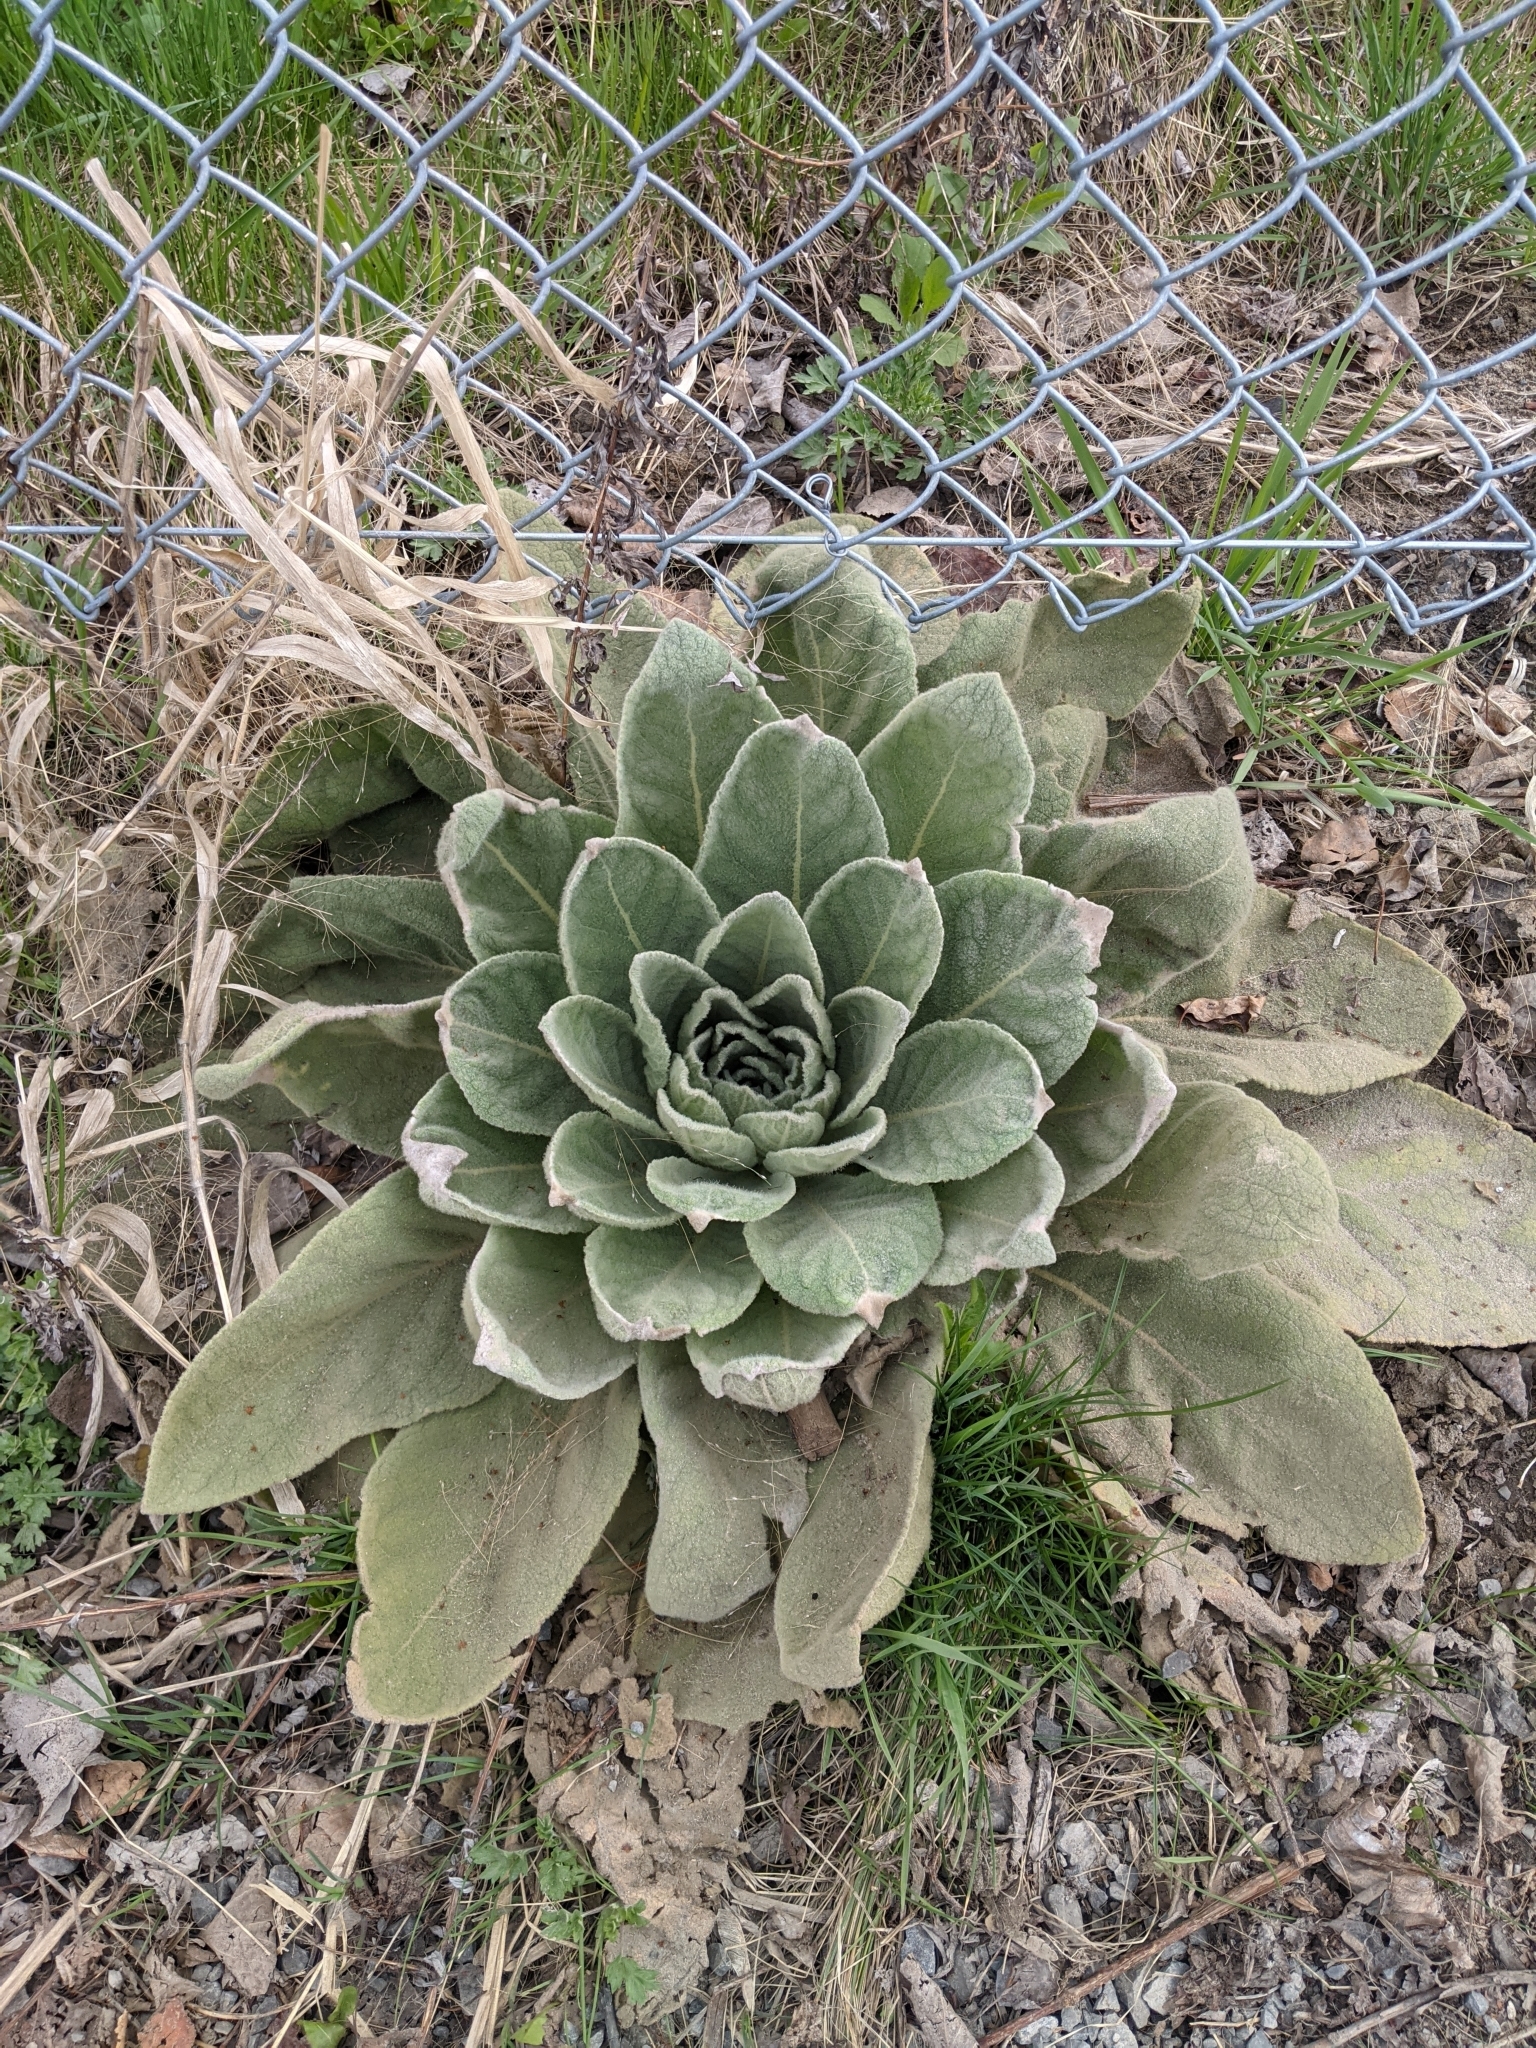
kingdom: Plantae
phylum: Tracheophyta
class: Magnoliopsida
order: Lamiales
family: Scrophulariaceae
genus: Verbascum
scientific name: Verbascum thapsus
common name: Common mullein
